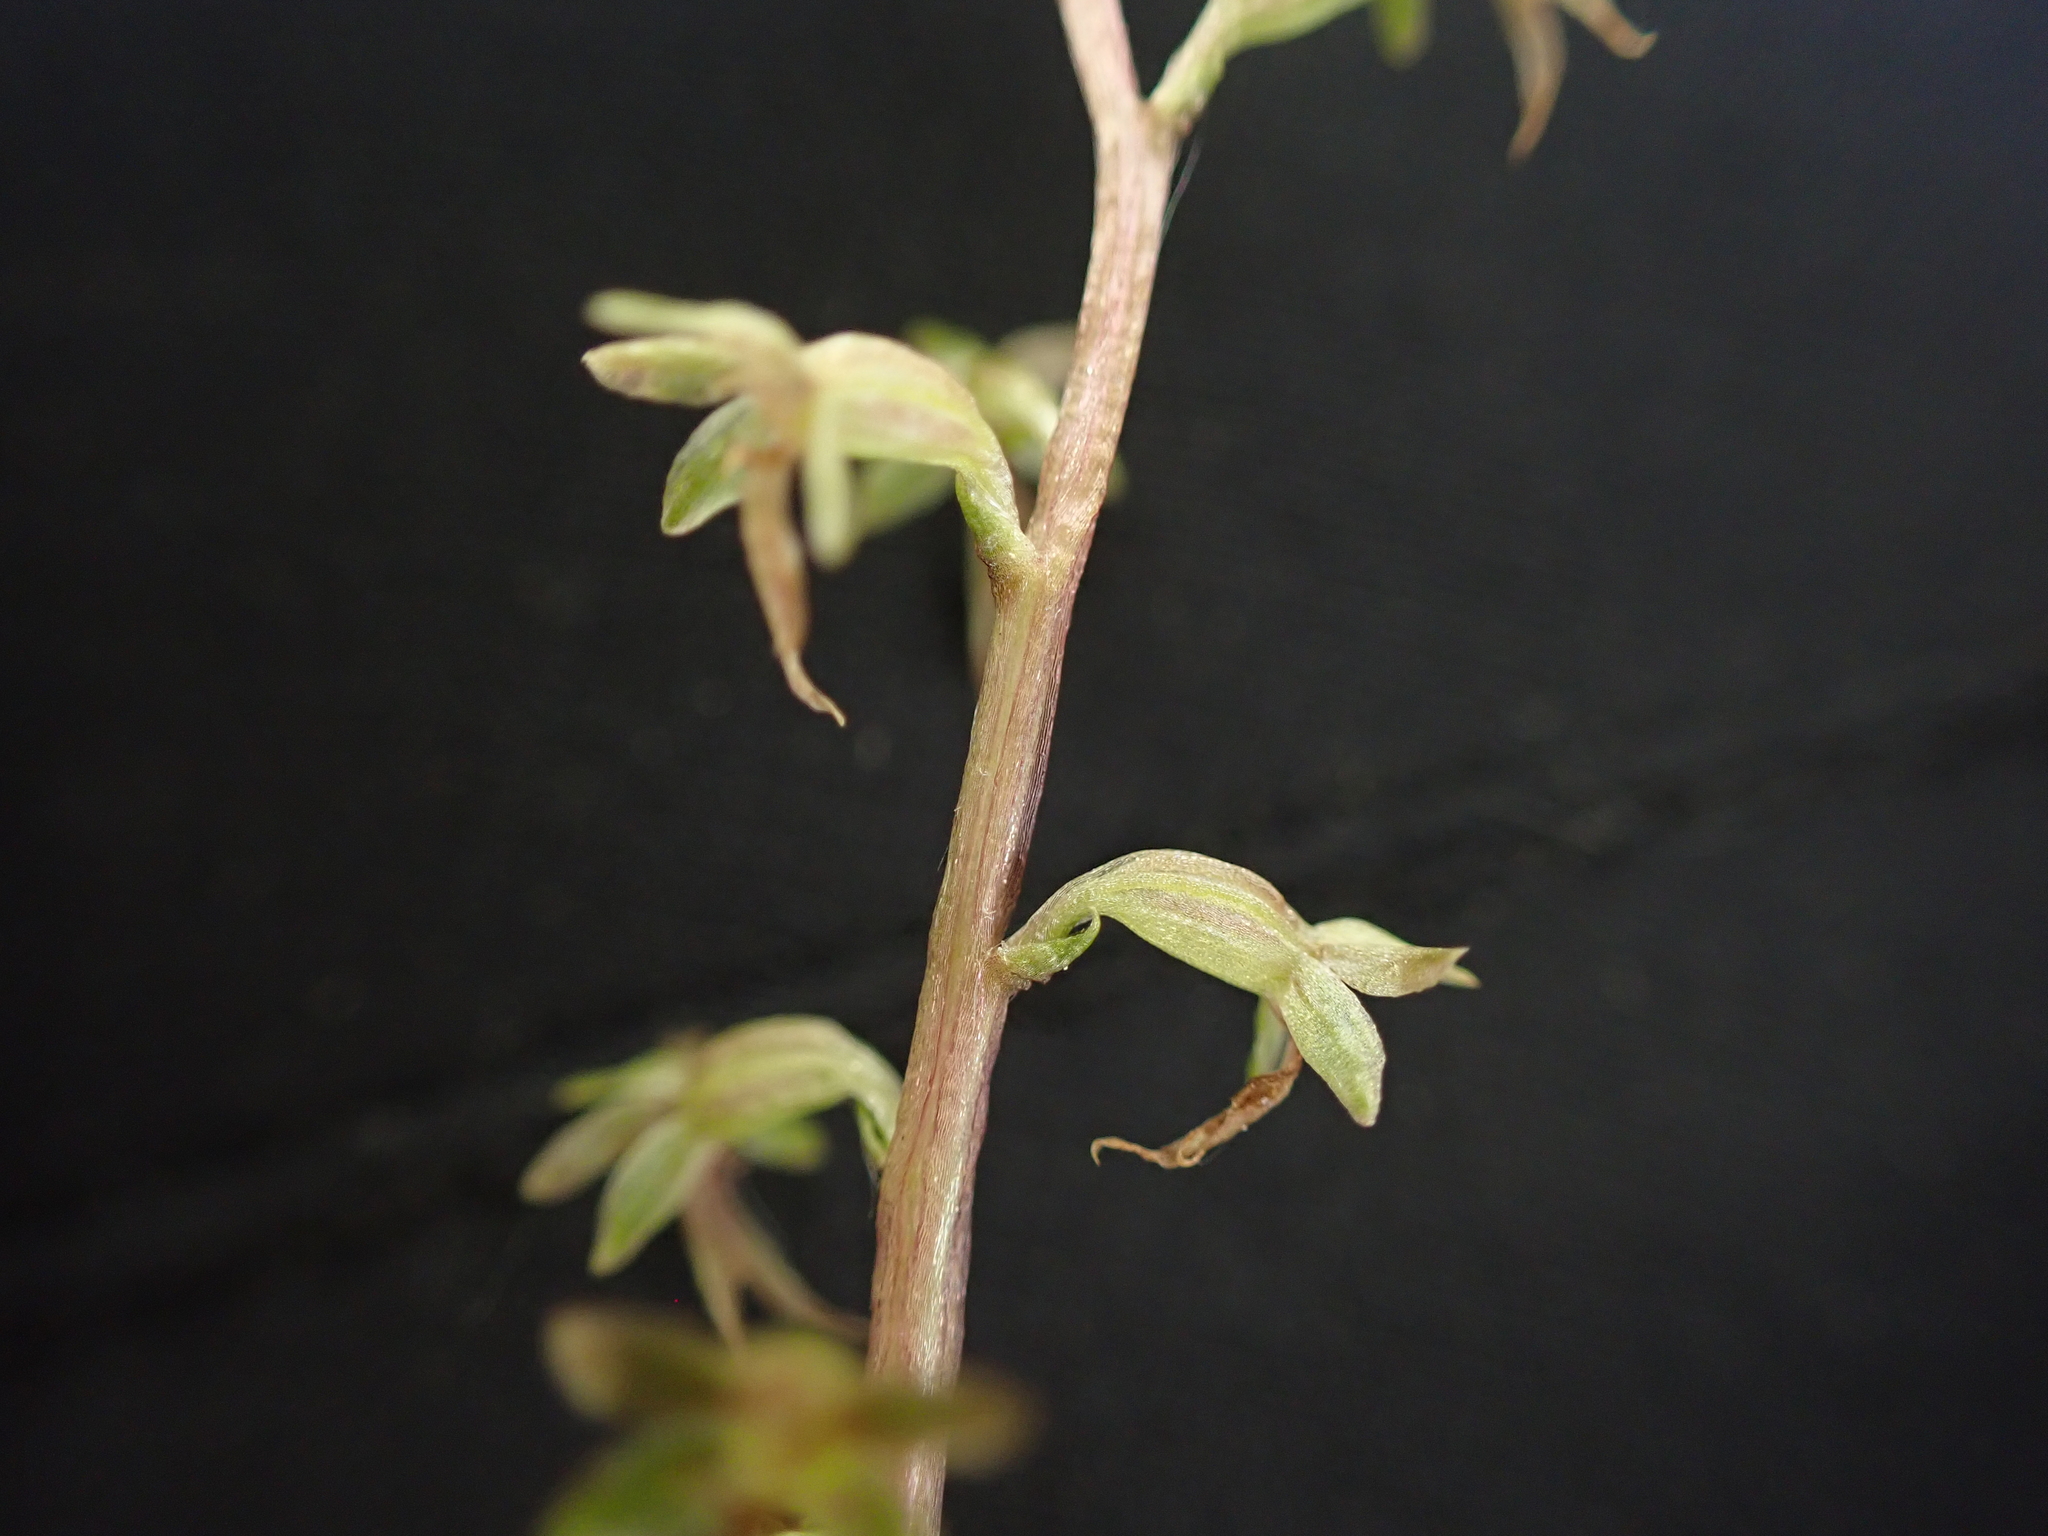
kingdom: Plantae
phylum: Tracheophyta
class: Liliopsida
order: Asparagales
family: Orchidaceae
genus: Neottia
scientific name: Neottia cordata
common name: Lesser twayblade
